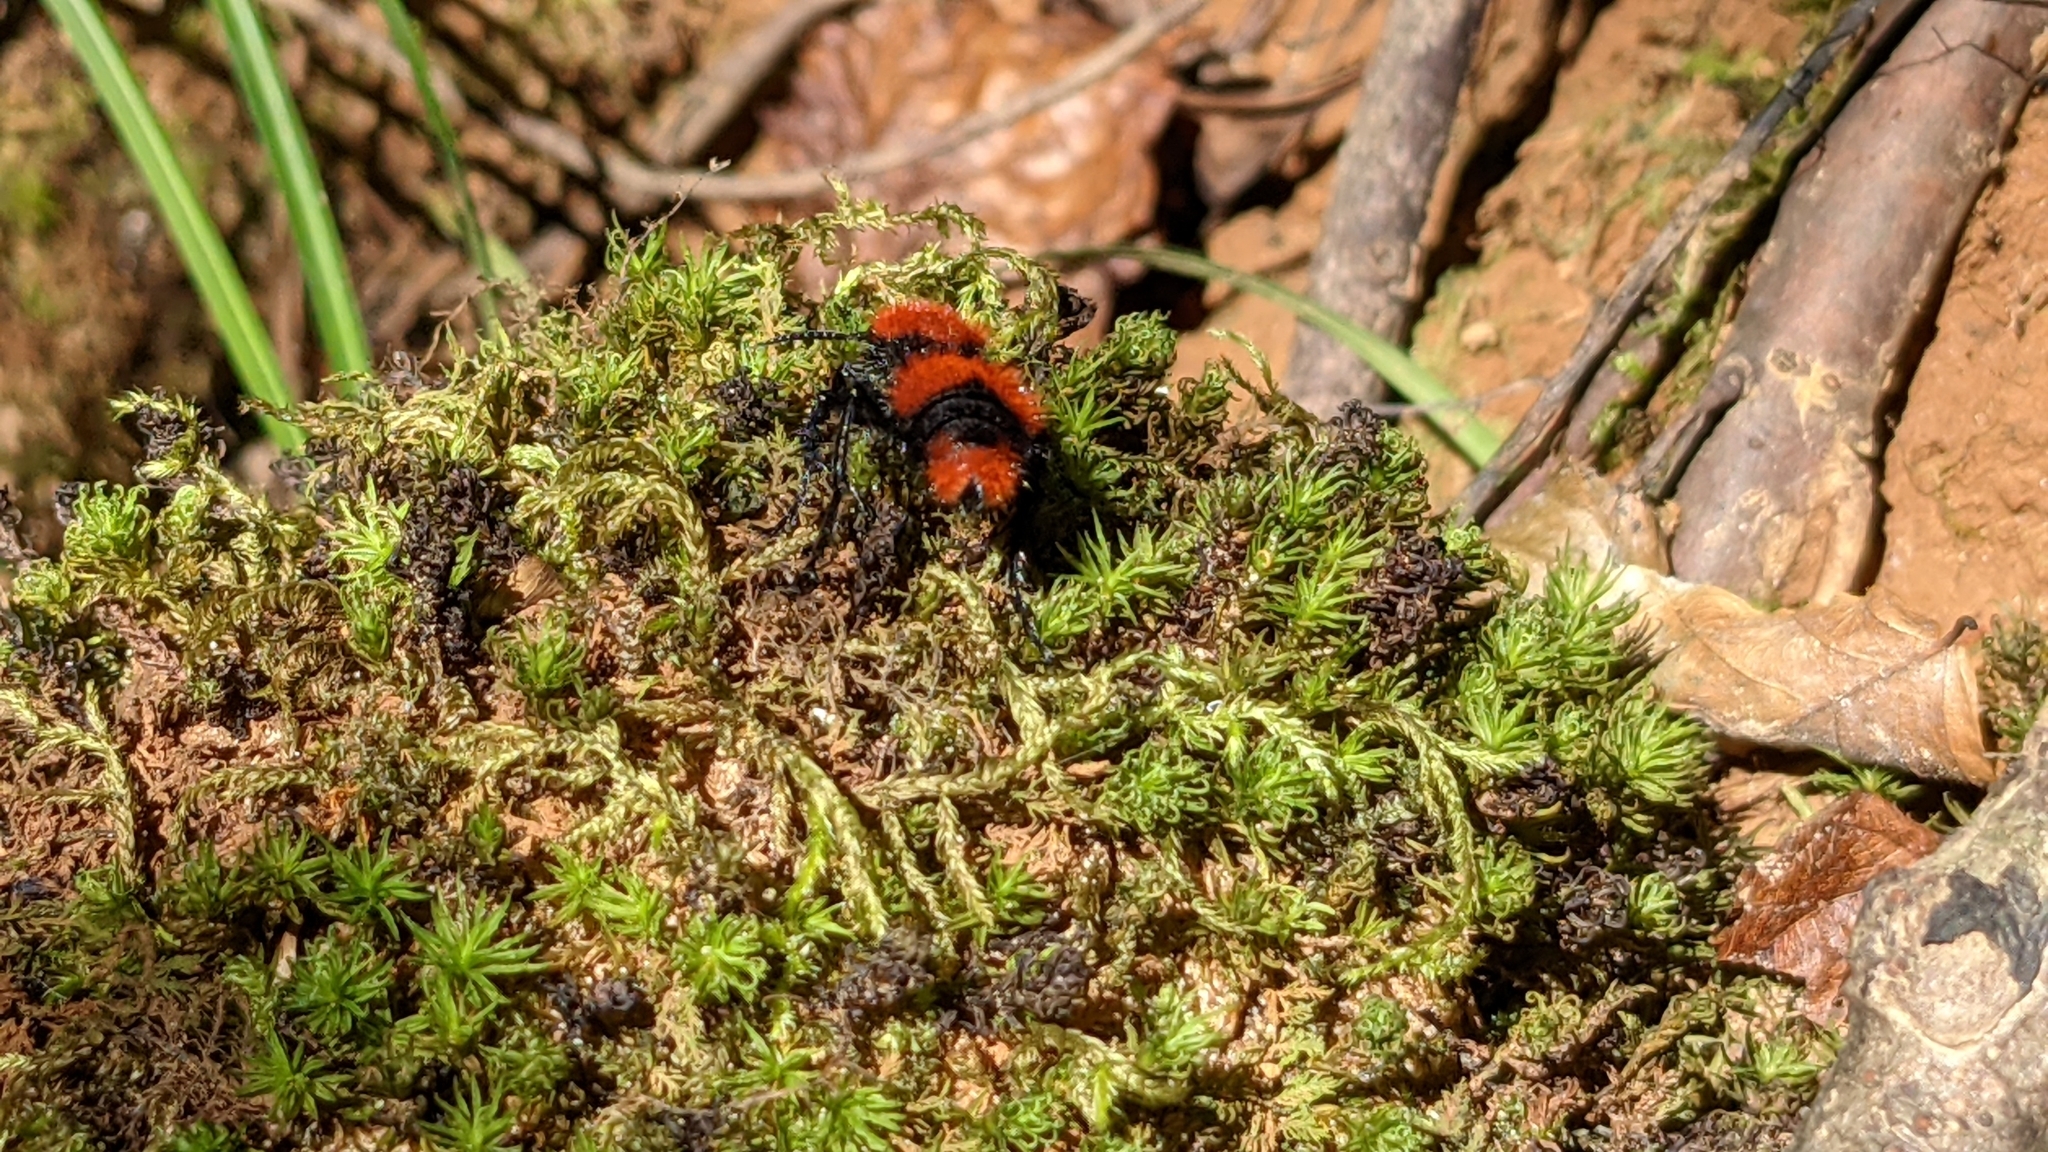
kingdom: Animalia
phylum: Arthropoda
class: Insecta
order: Hymenoptera
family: Mutillidae
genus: Dasymutilla
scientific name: Dasymutilla occidentalis
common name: Common eastern velvet ant
